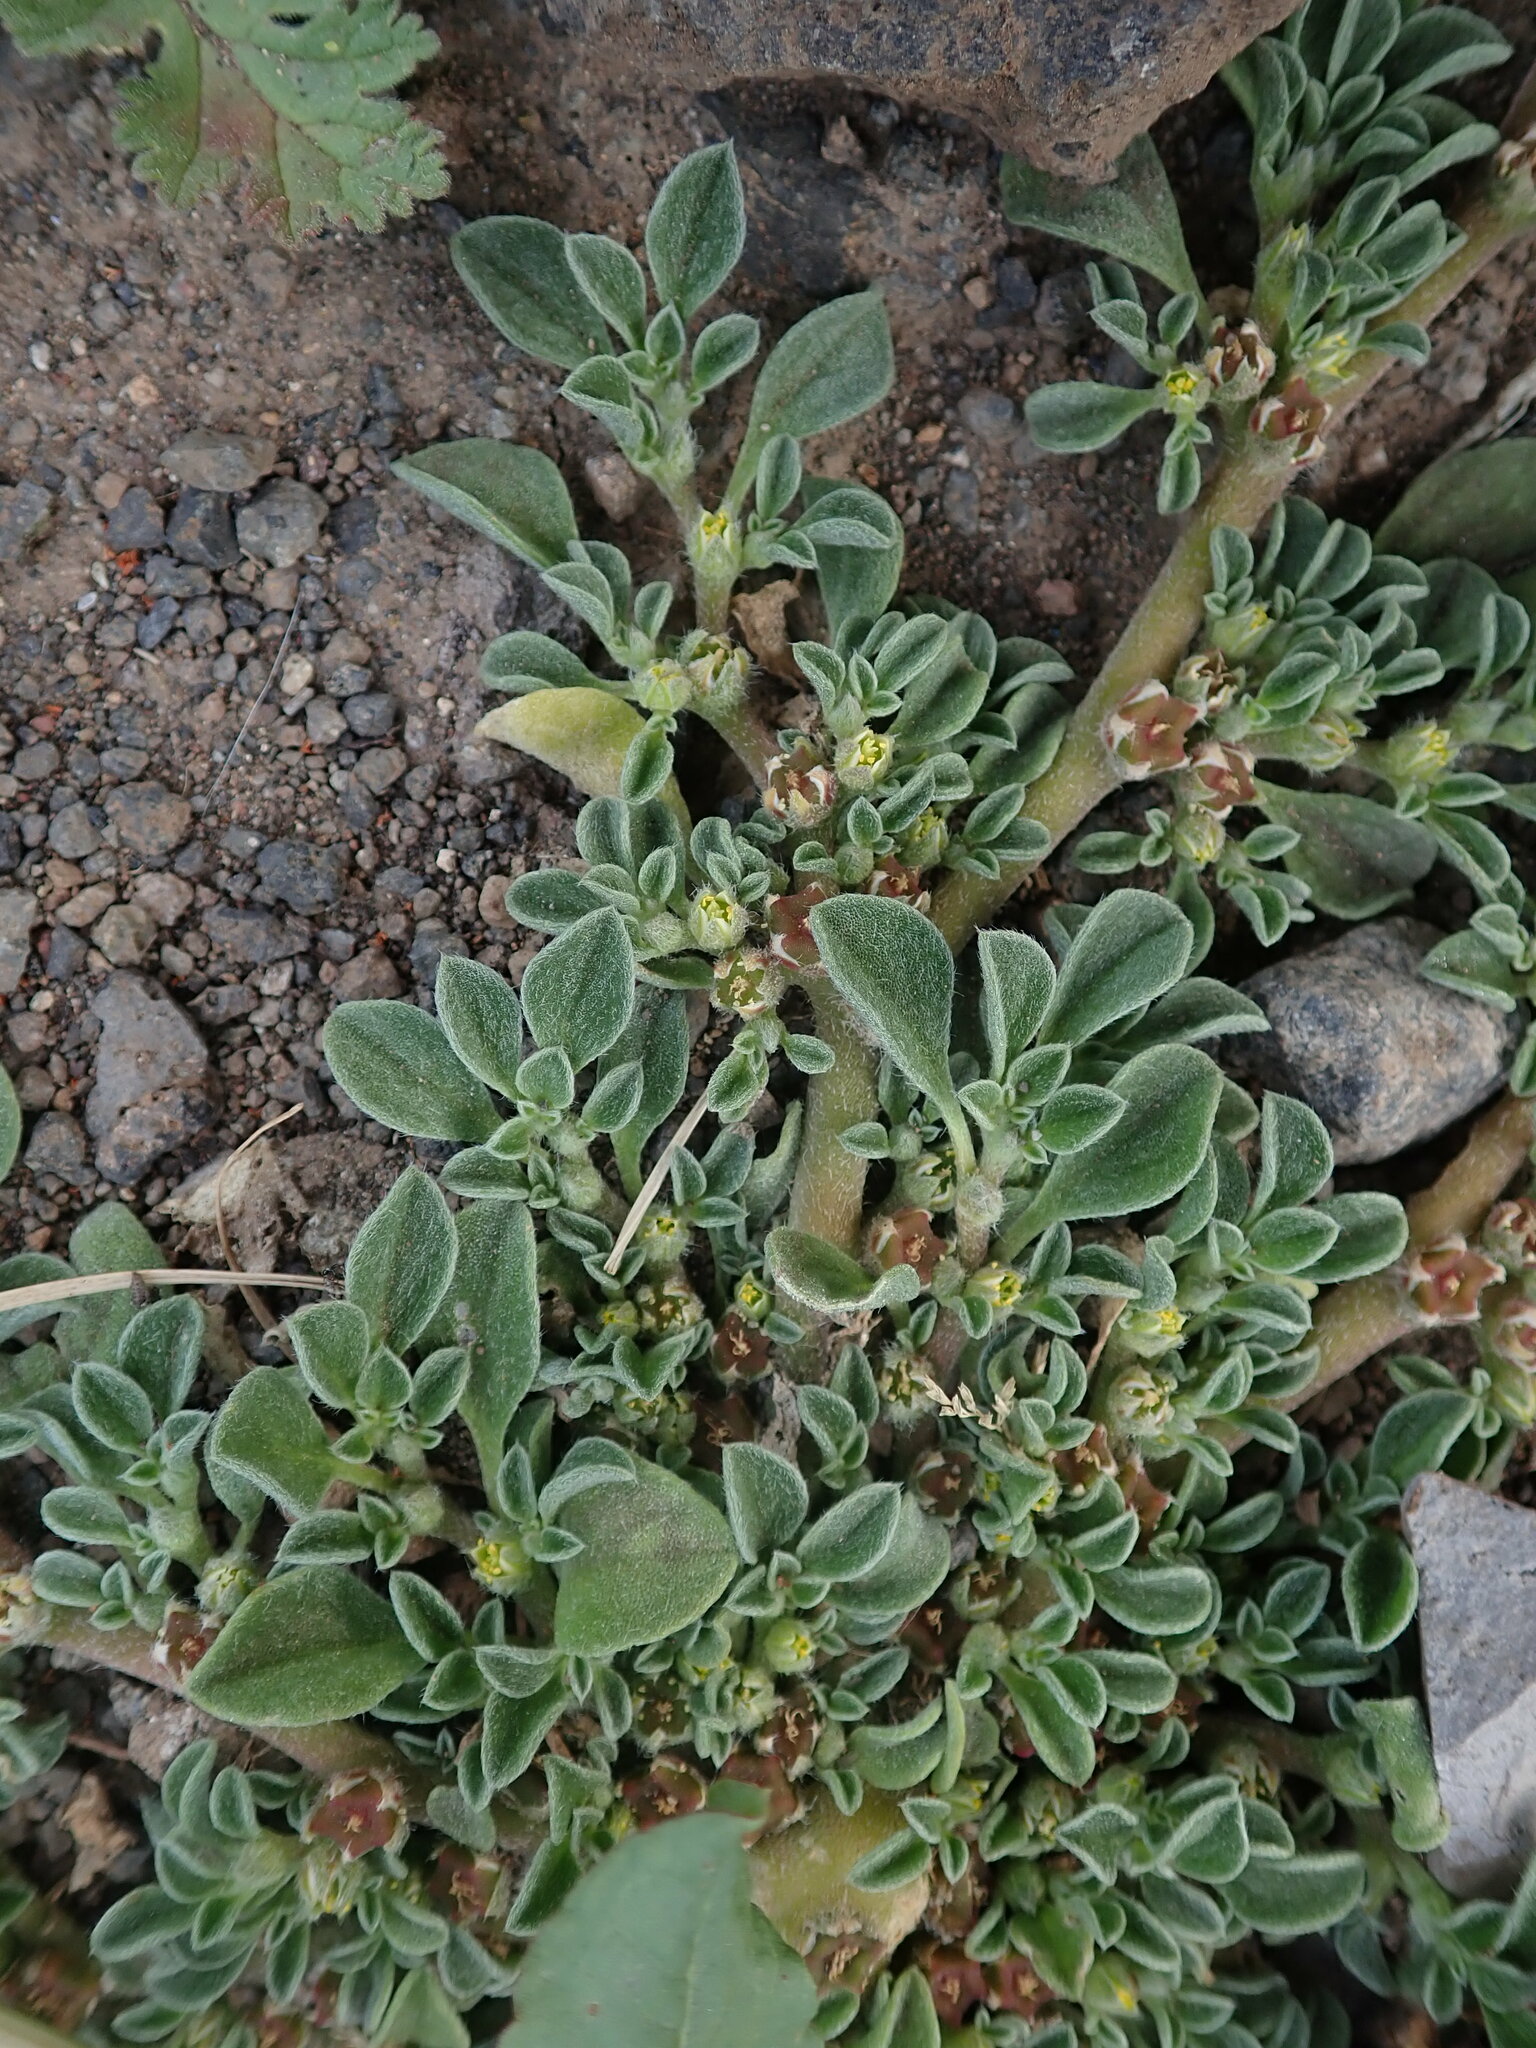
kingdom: Plantae
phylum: Tracheophyta
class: Magnoliopsida
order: Caryophyllales
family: Aizoaceae
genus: Aizoon
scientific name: Aizoon canariense
